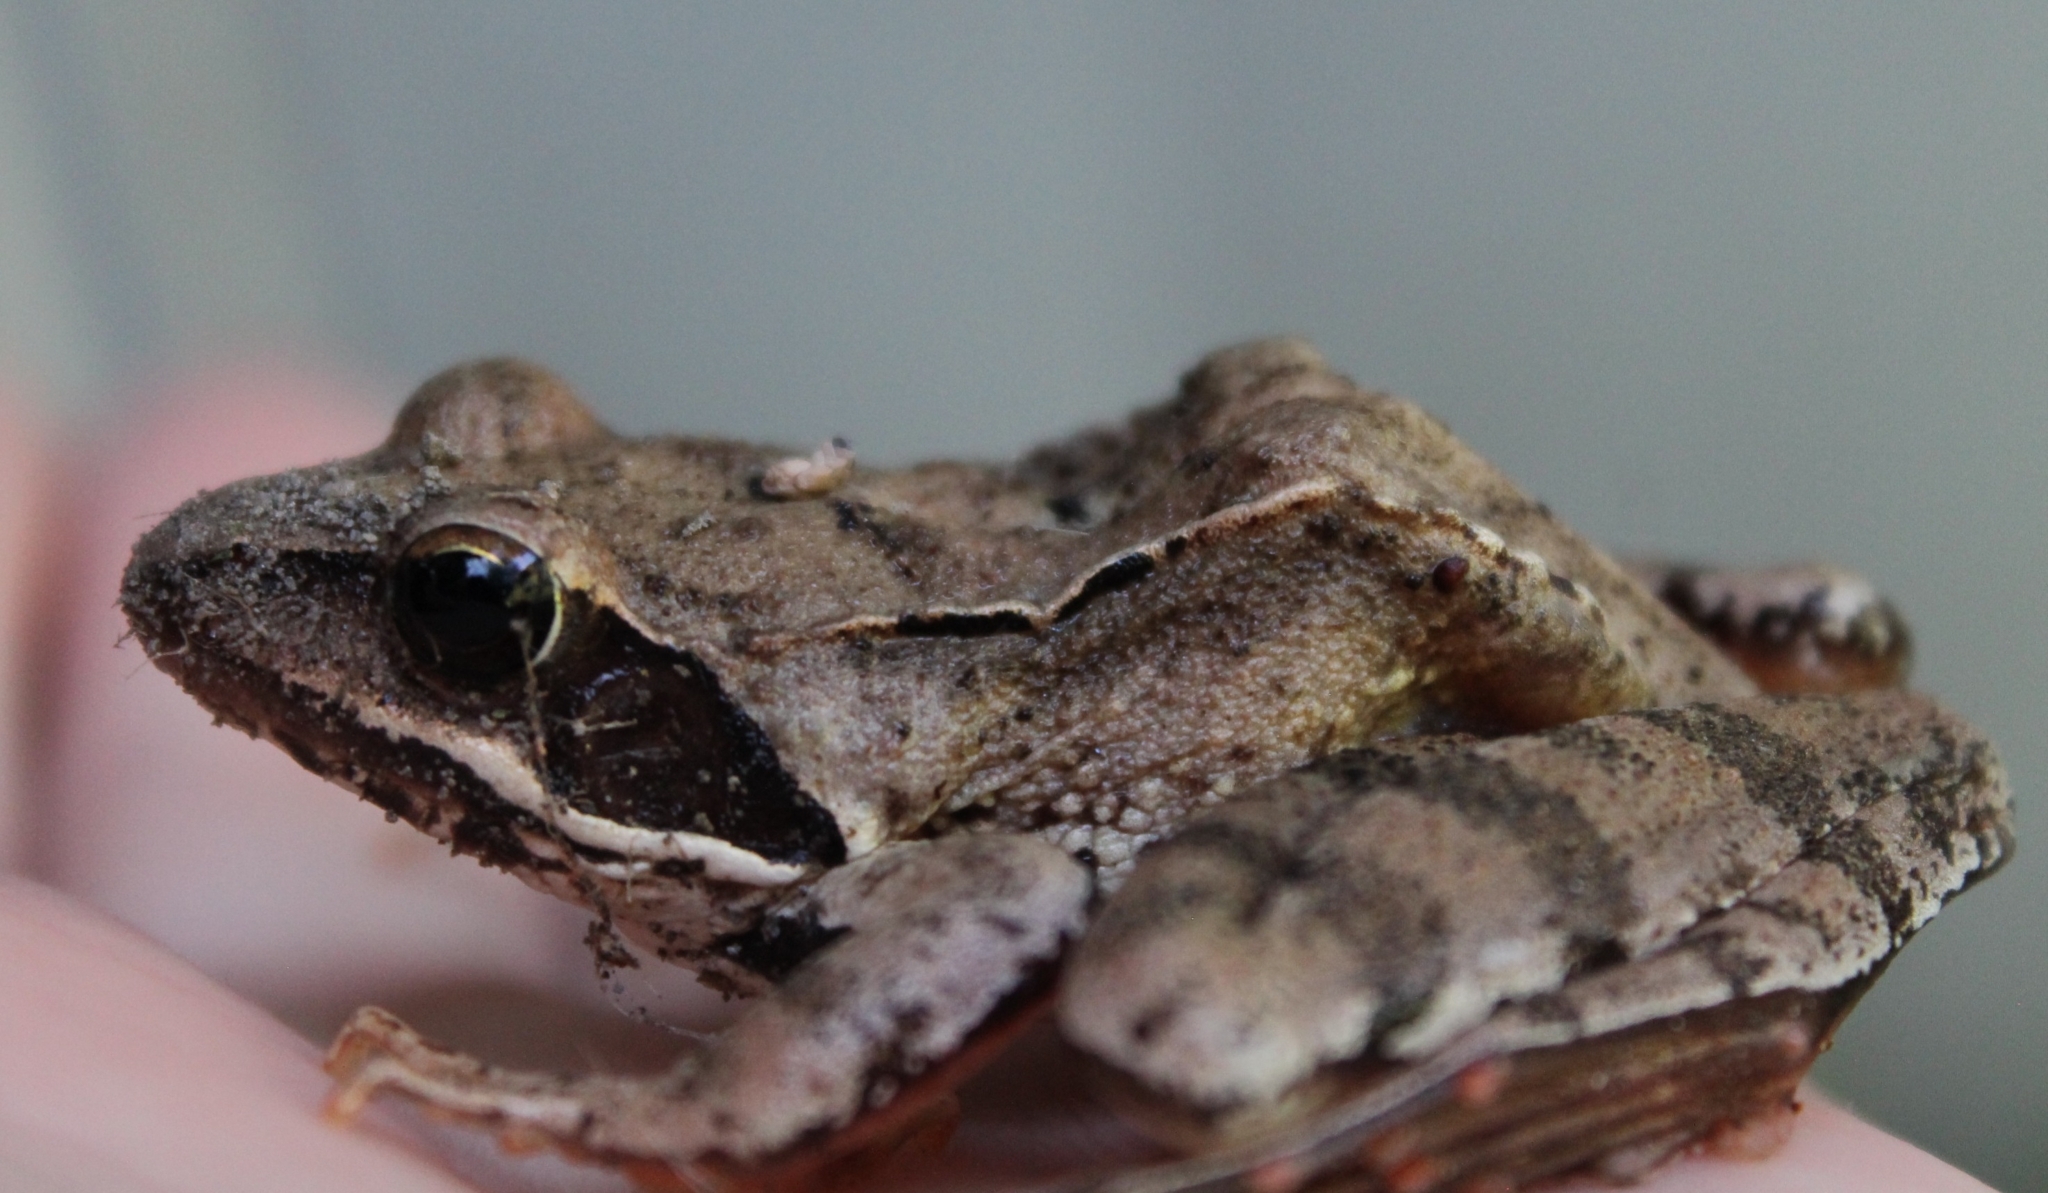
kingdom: Animalia
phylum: Chordata
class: Amphibia
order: Anura
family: Ranidae
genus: Rana
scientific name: Rana dalmatina
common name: Agile frog
